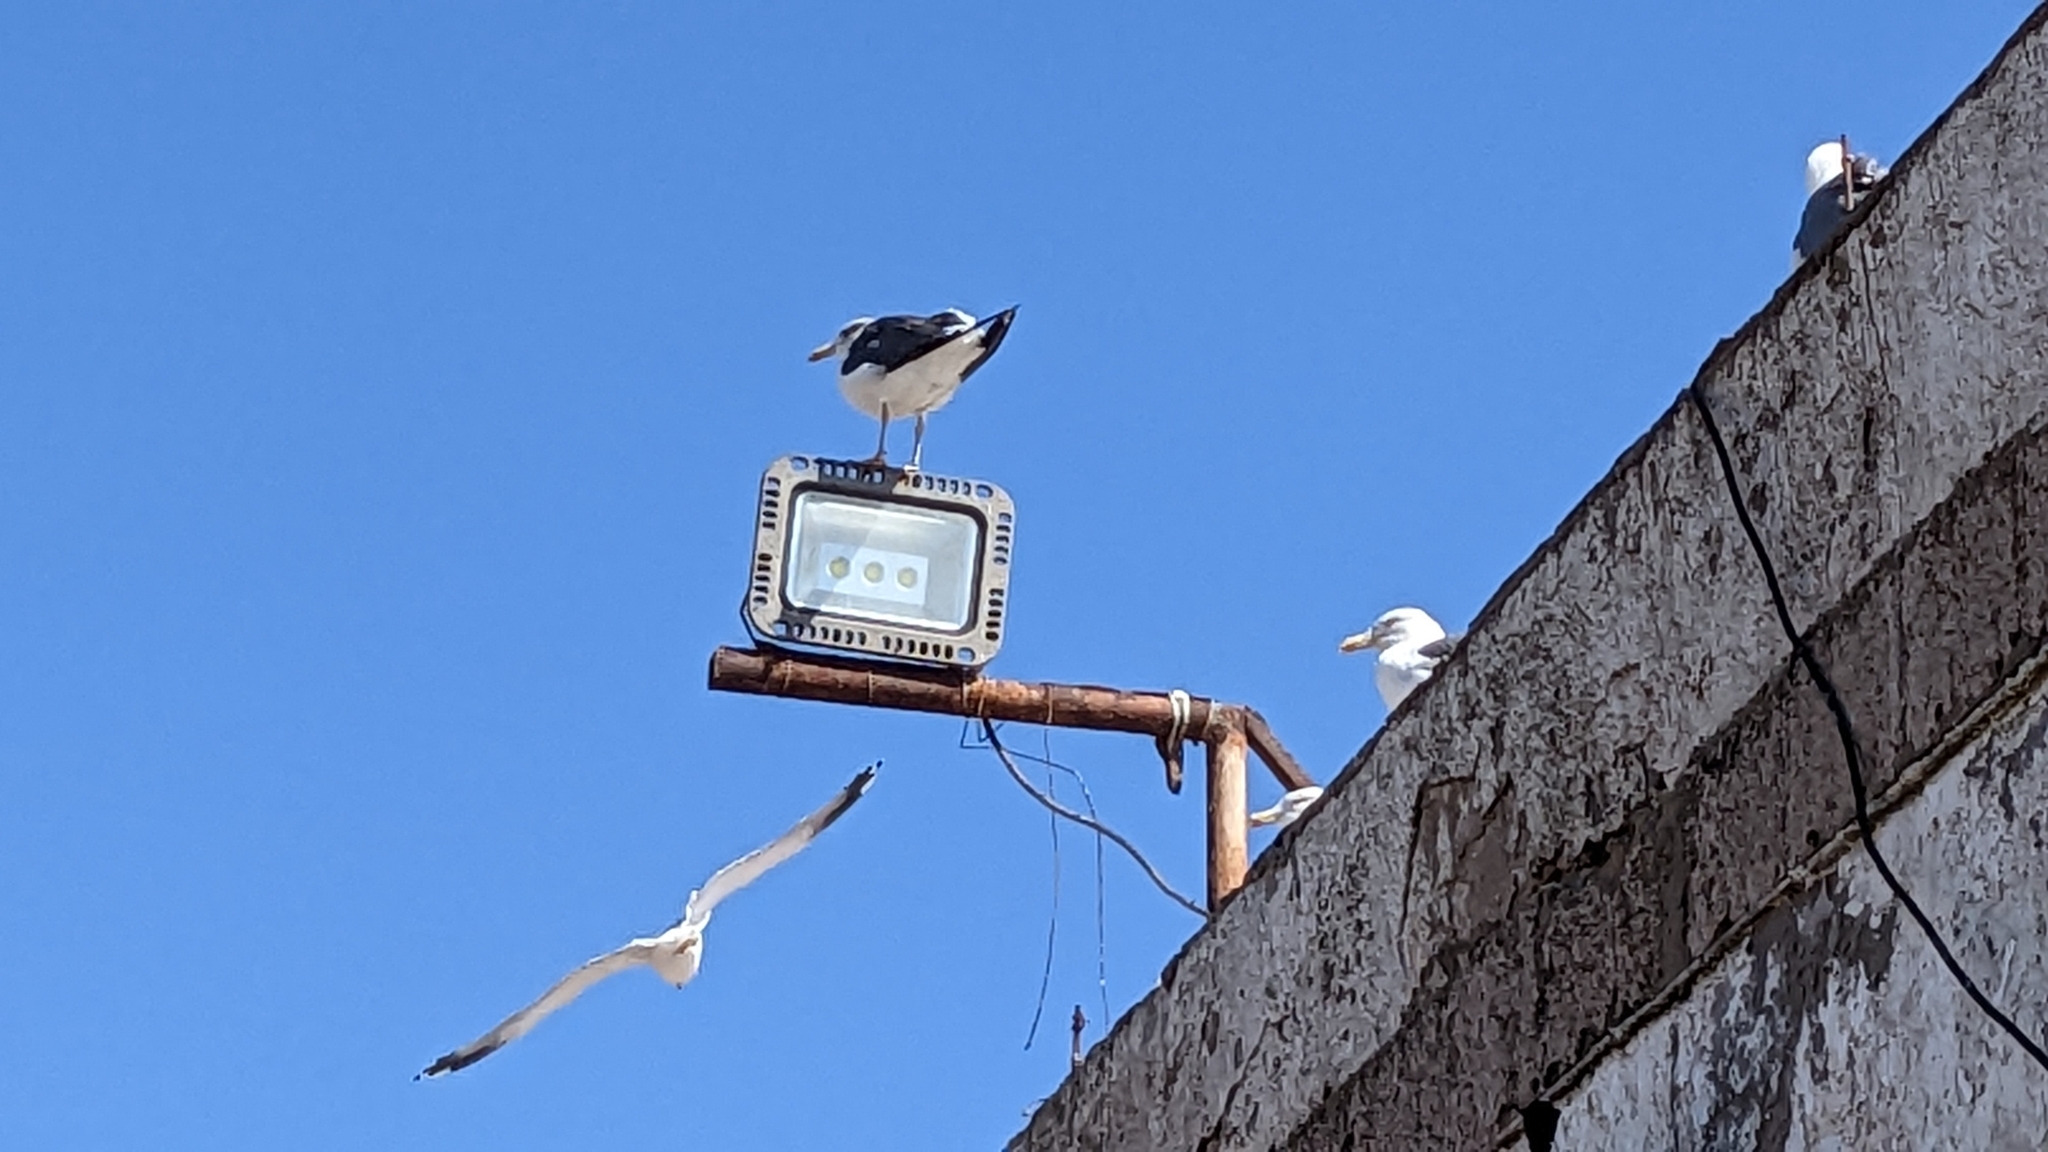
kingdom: Animalia
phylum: Chordata
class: Aves
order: Charadriiformes
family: Laridae
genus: Larus
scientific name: Larus fuscus
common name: Lesser black-backed gull
